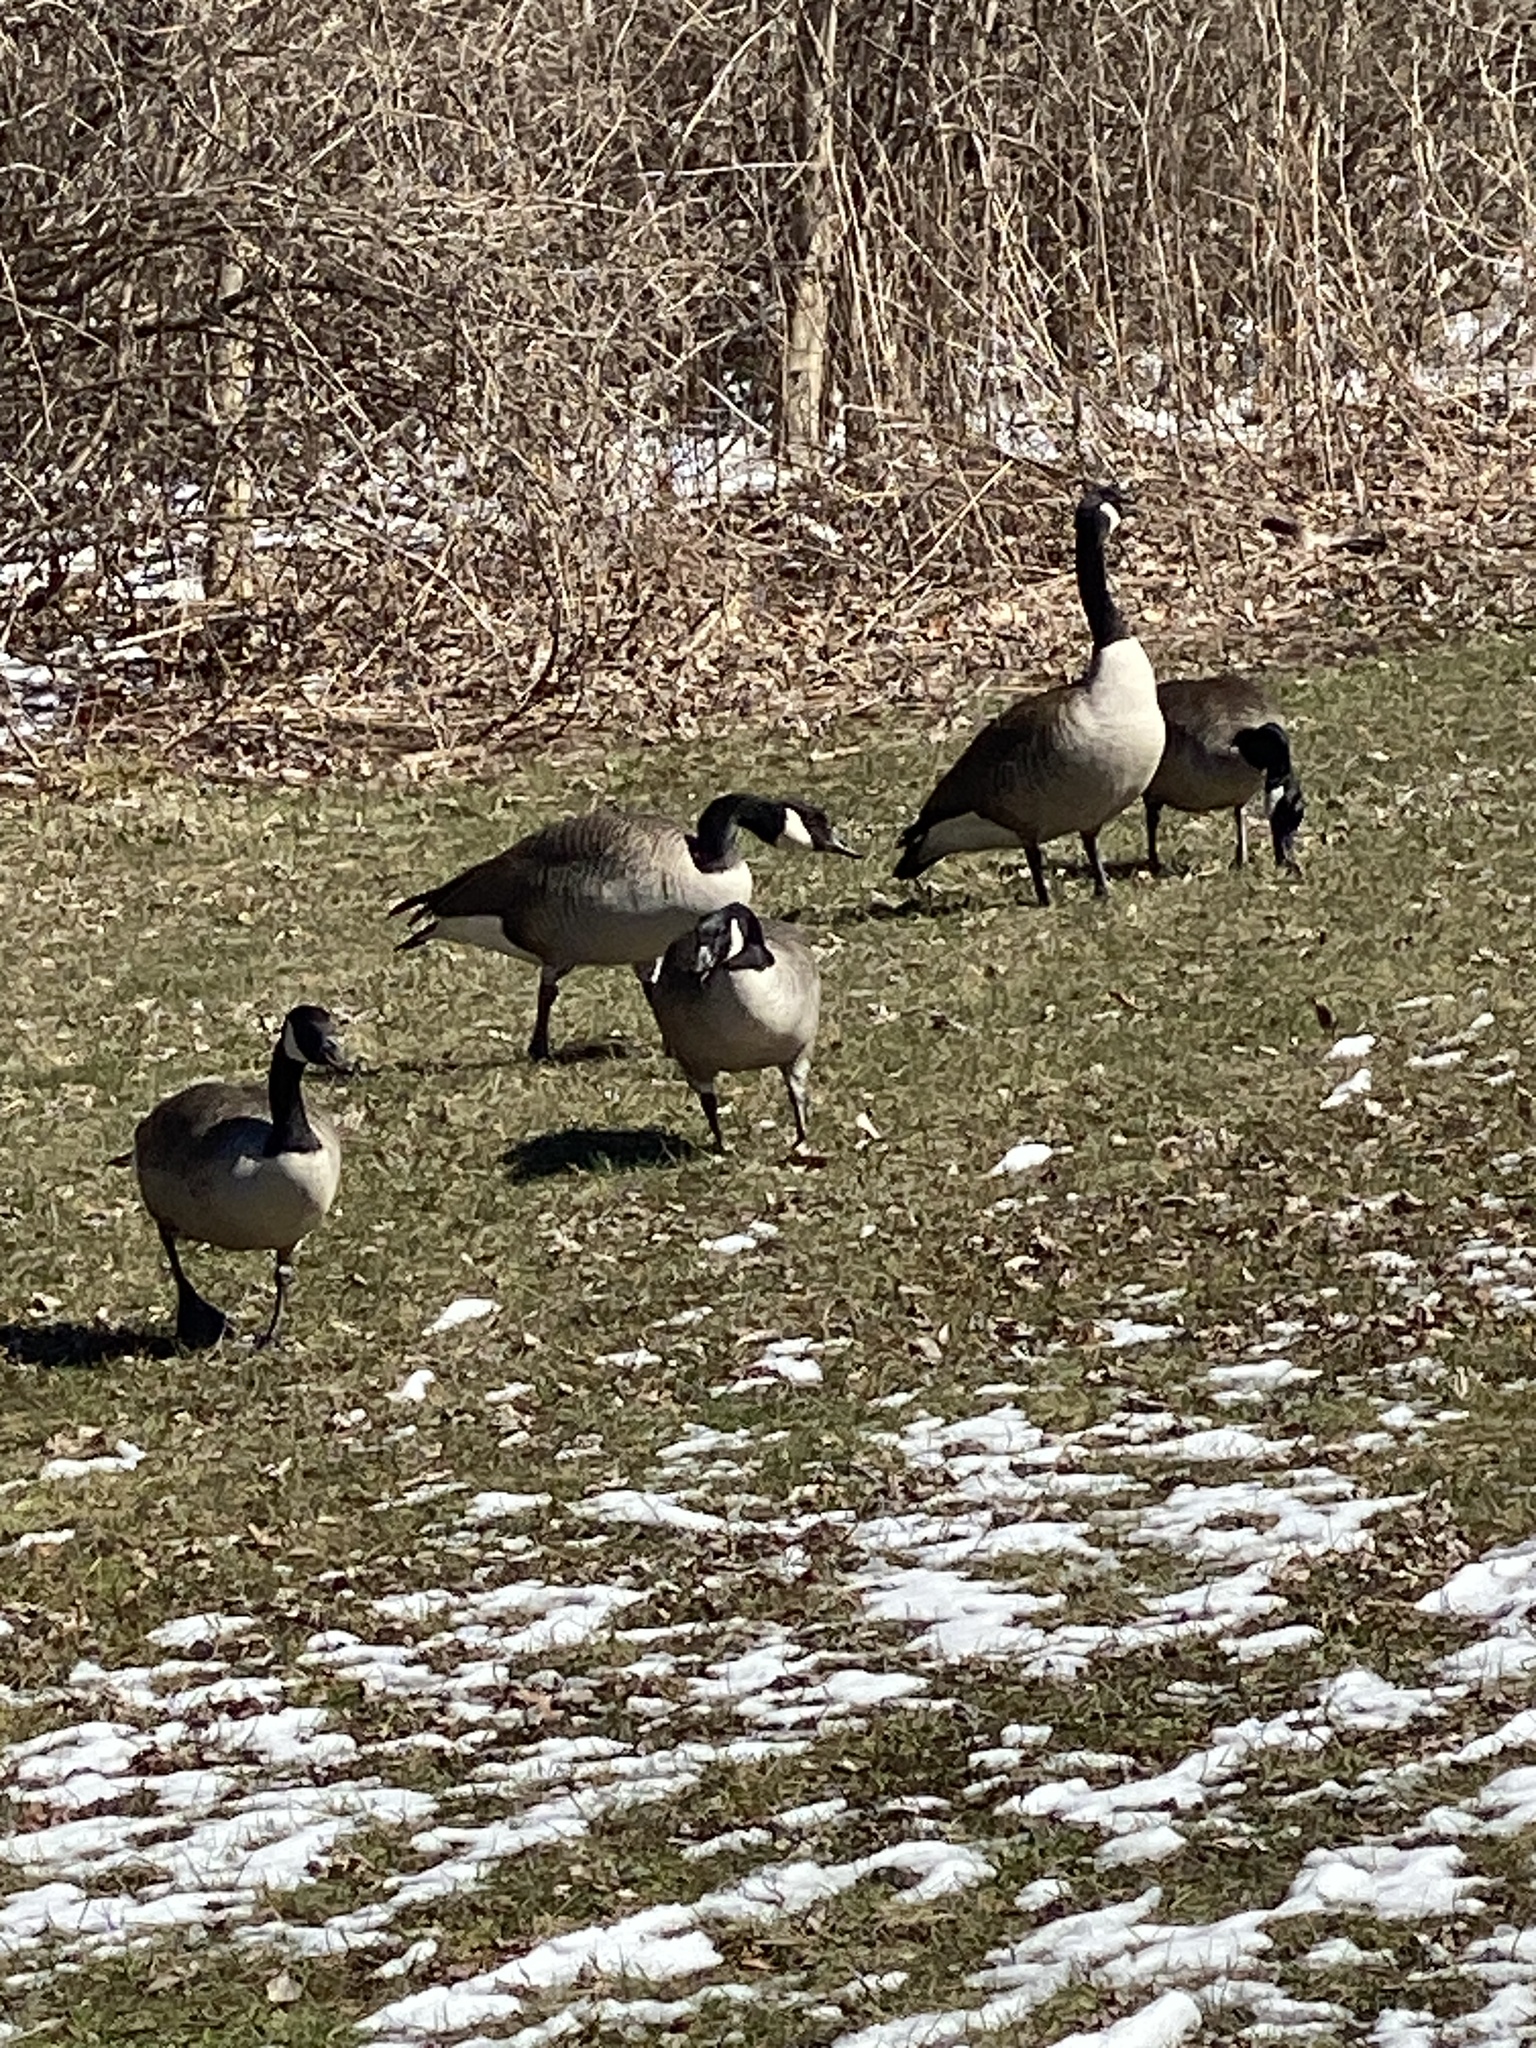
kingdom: Animalia
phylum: Chordata
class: Aves
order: Anseriformes
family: Anatidae
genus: Branta
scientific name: Branta canadensis
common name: Canada goose
